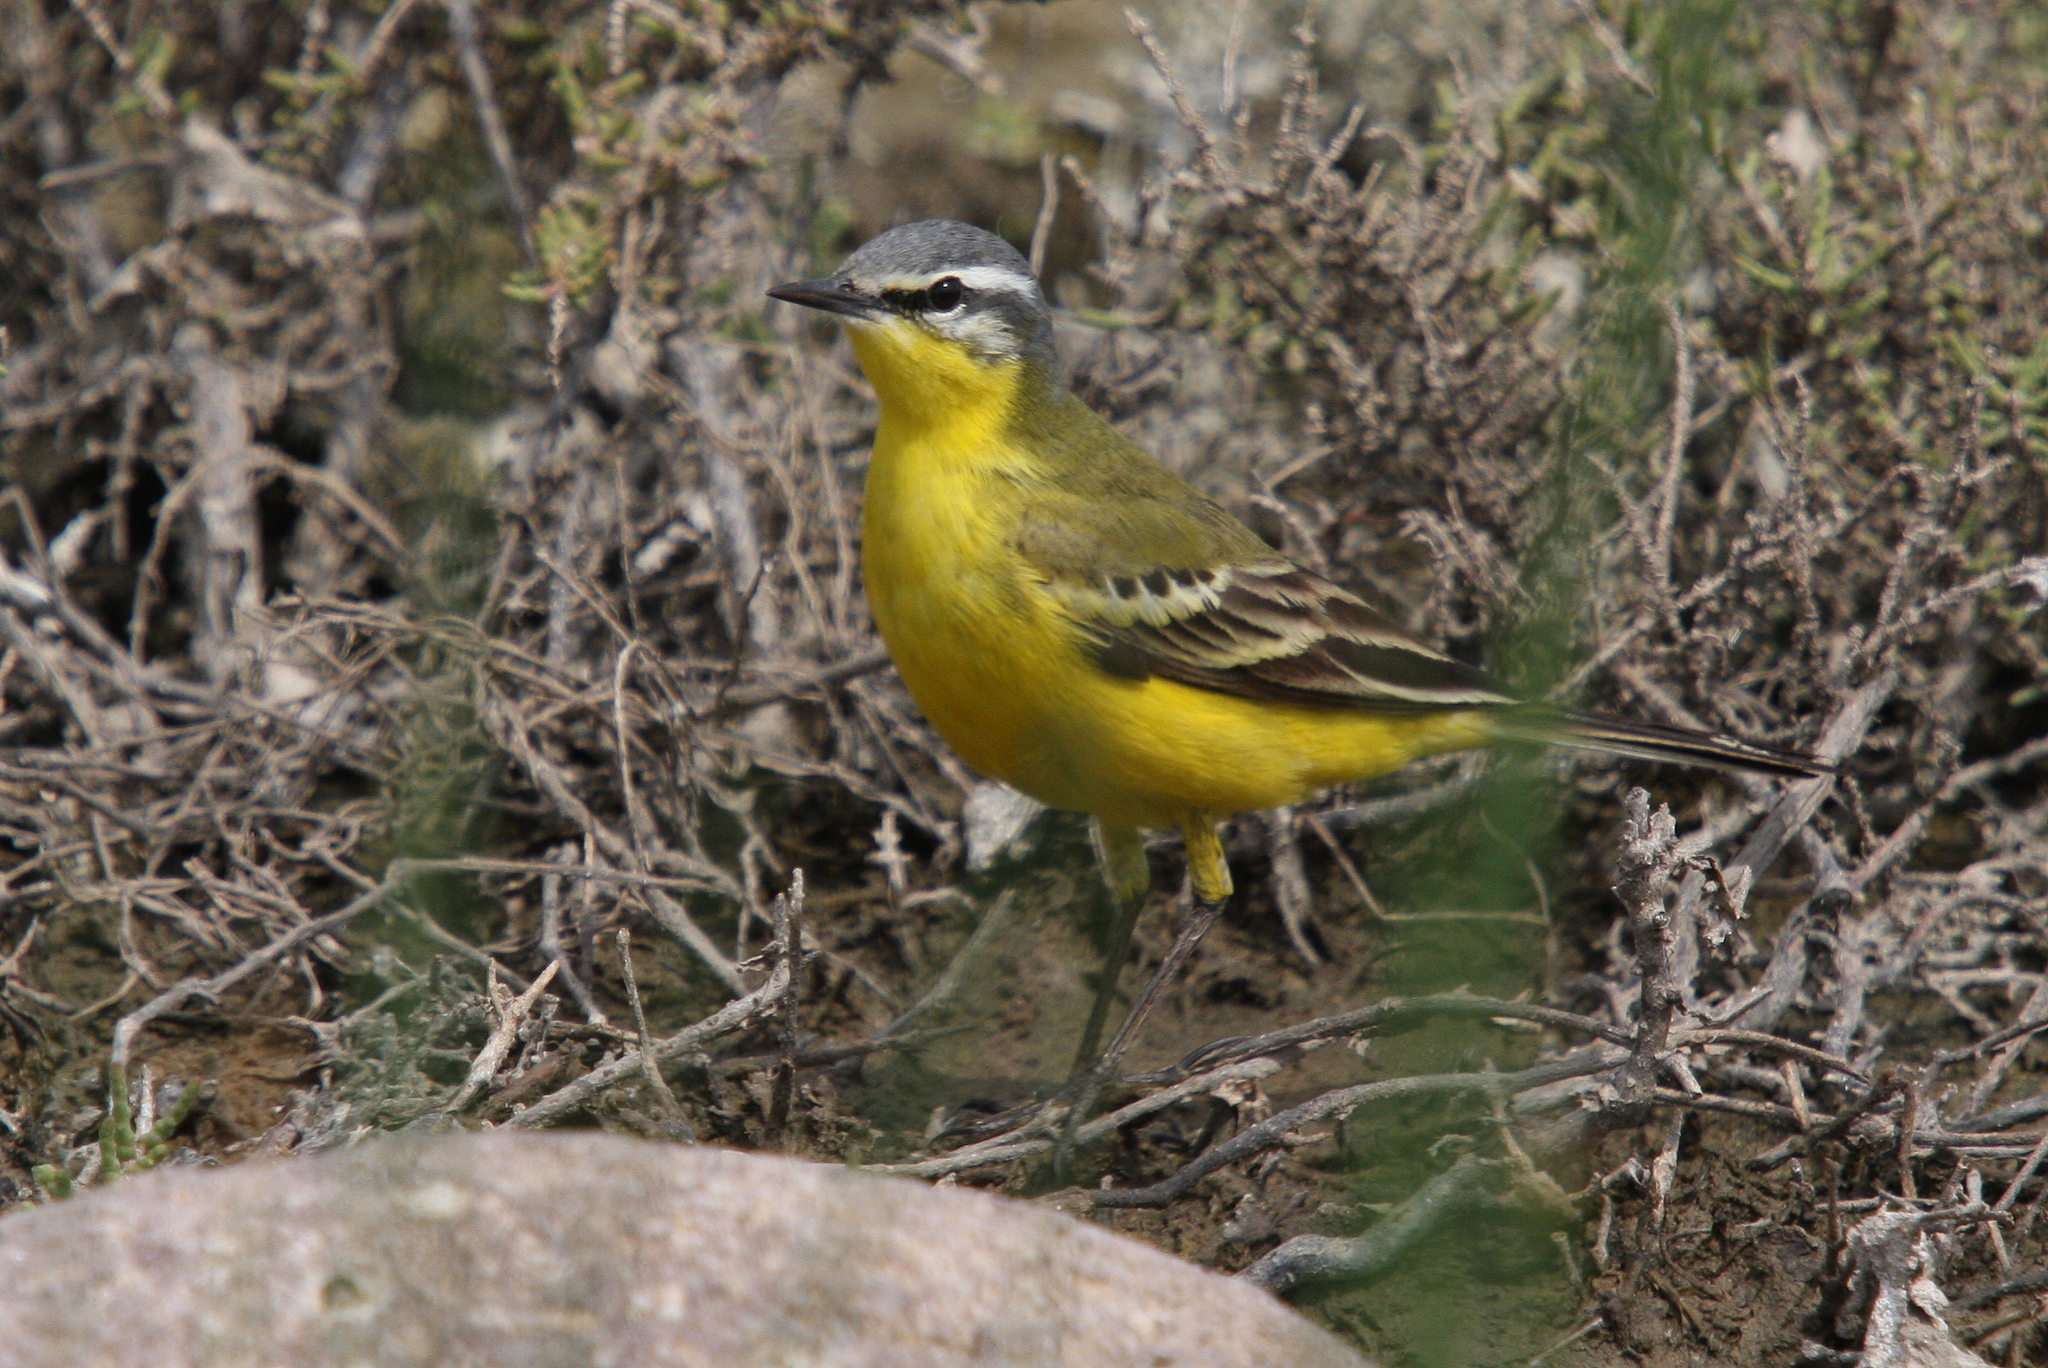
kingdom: Animalia
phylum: Chordata
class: Aves
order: Passeriformes
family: Motacillidae
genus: Motacilla
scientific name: Motacilla flava
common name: Western yellow wagtail
